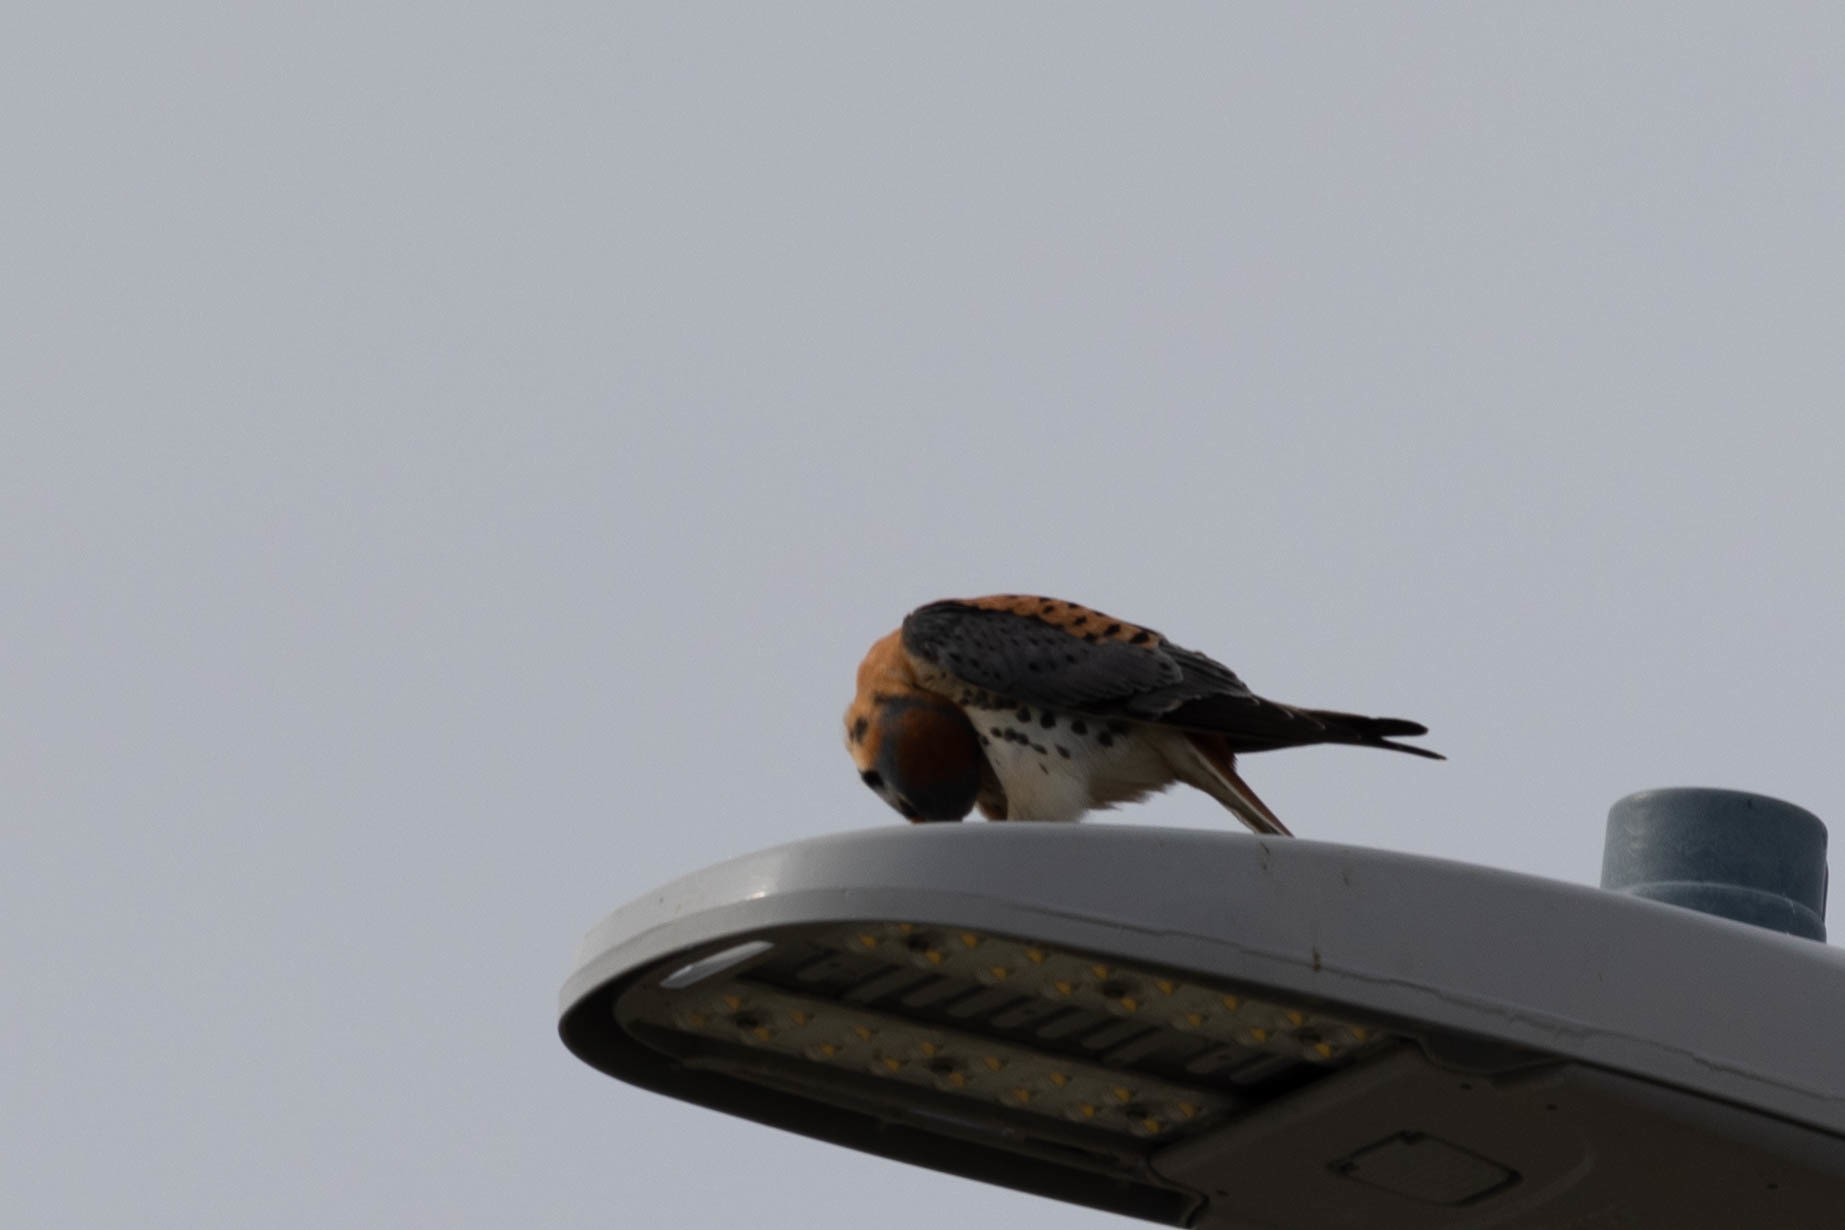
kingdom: Animalia
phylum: Chordata
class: Aves
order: Falconiformes
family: Falconidae
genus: Falco
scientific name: Falco sparverius
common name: American kestrel
